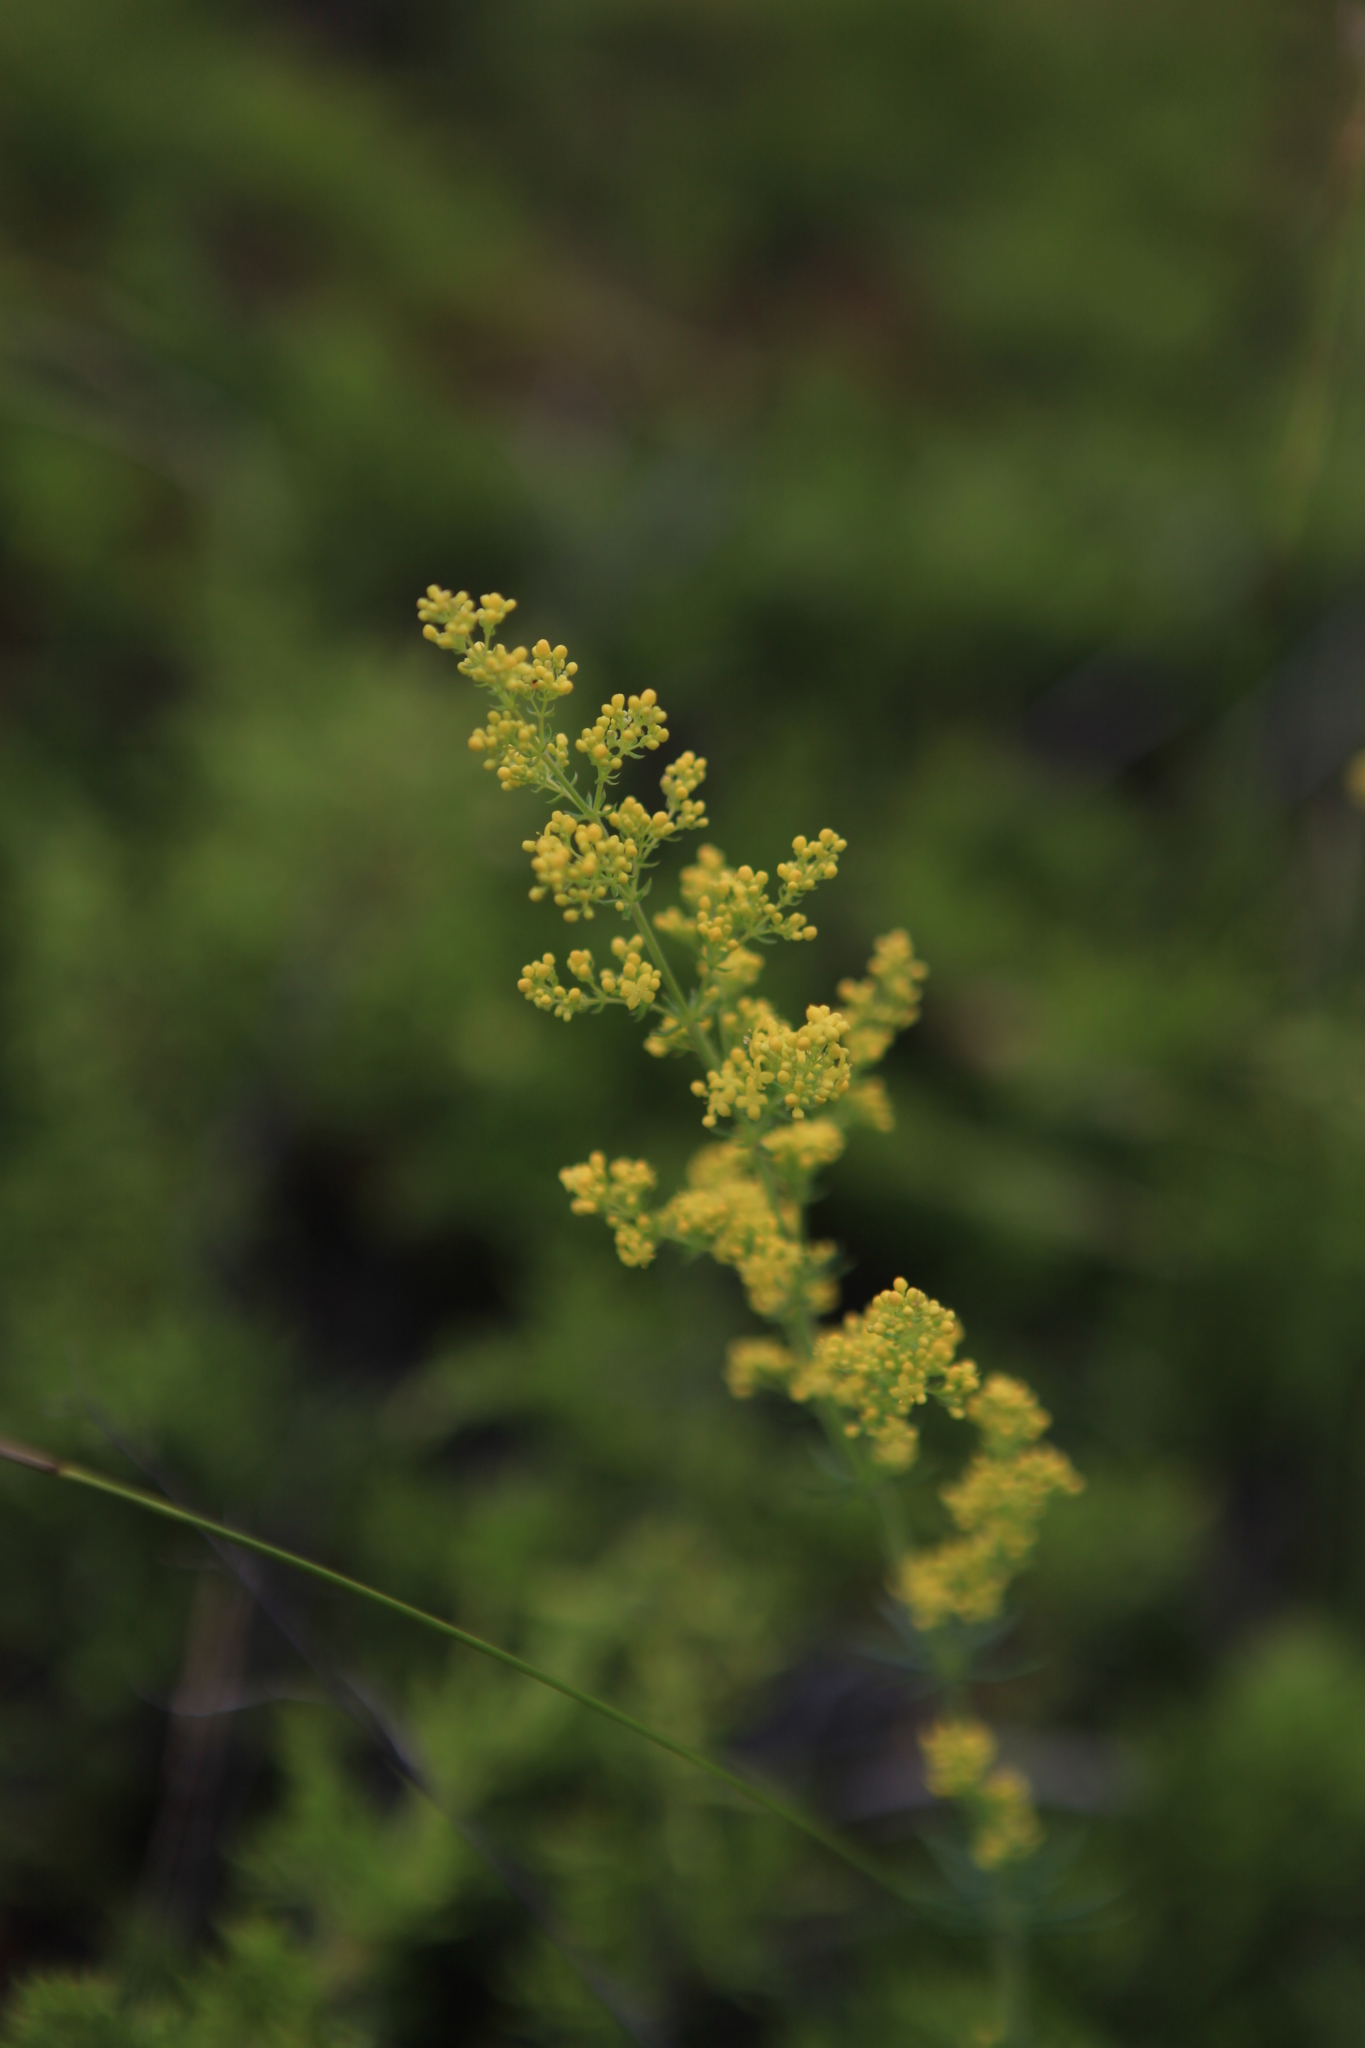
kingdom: Plantae
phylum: Tracheophyta
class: Magnoliopsida
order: Gentianales
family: Rubiaceae
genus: Galium
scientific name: Galium verum
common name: Lady's bedstraw
